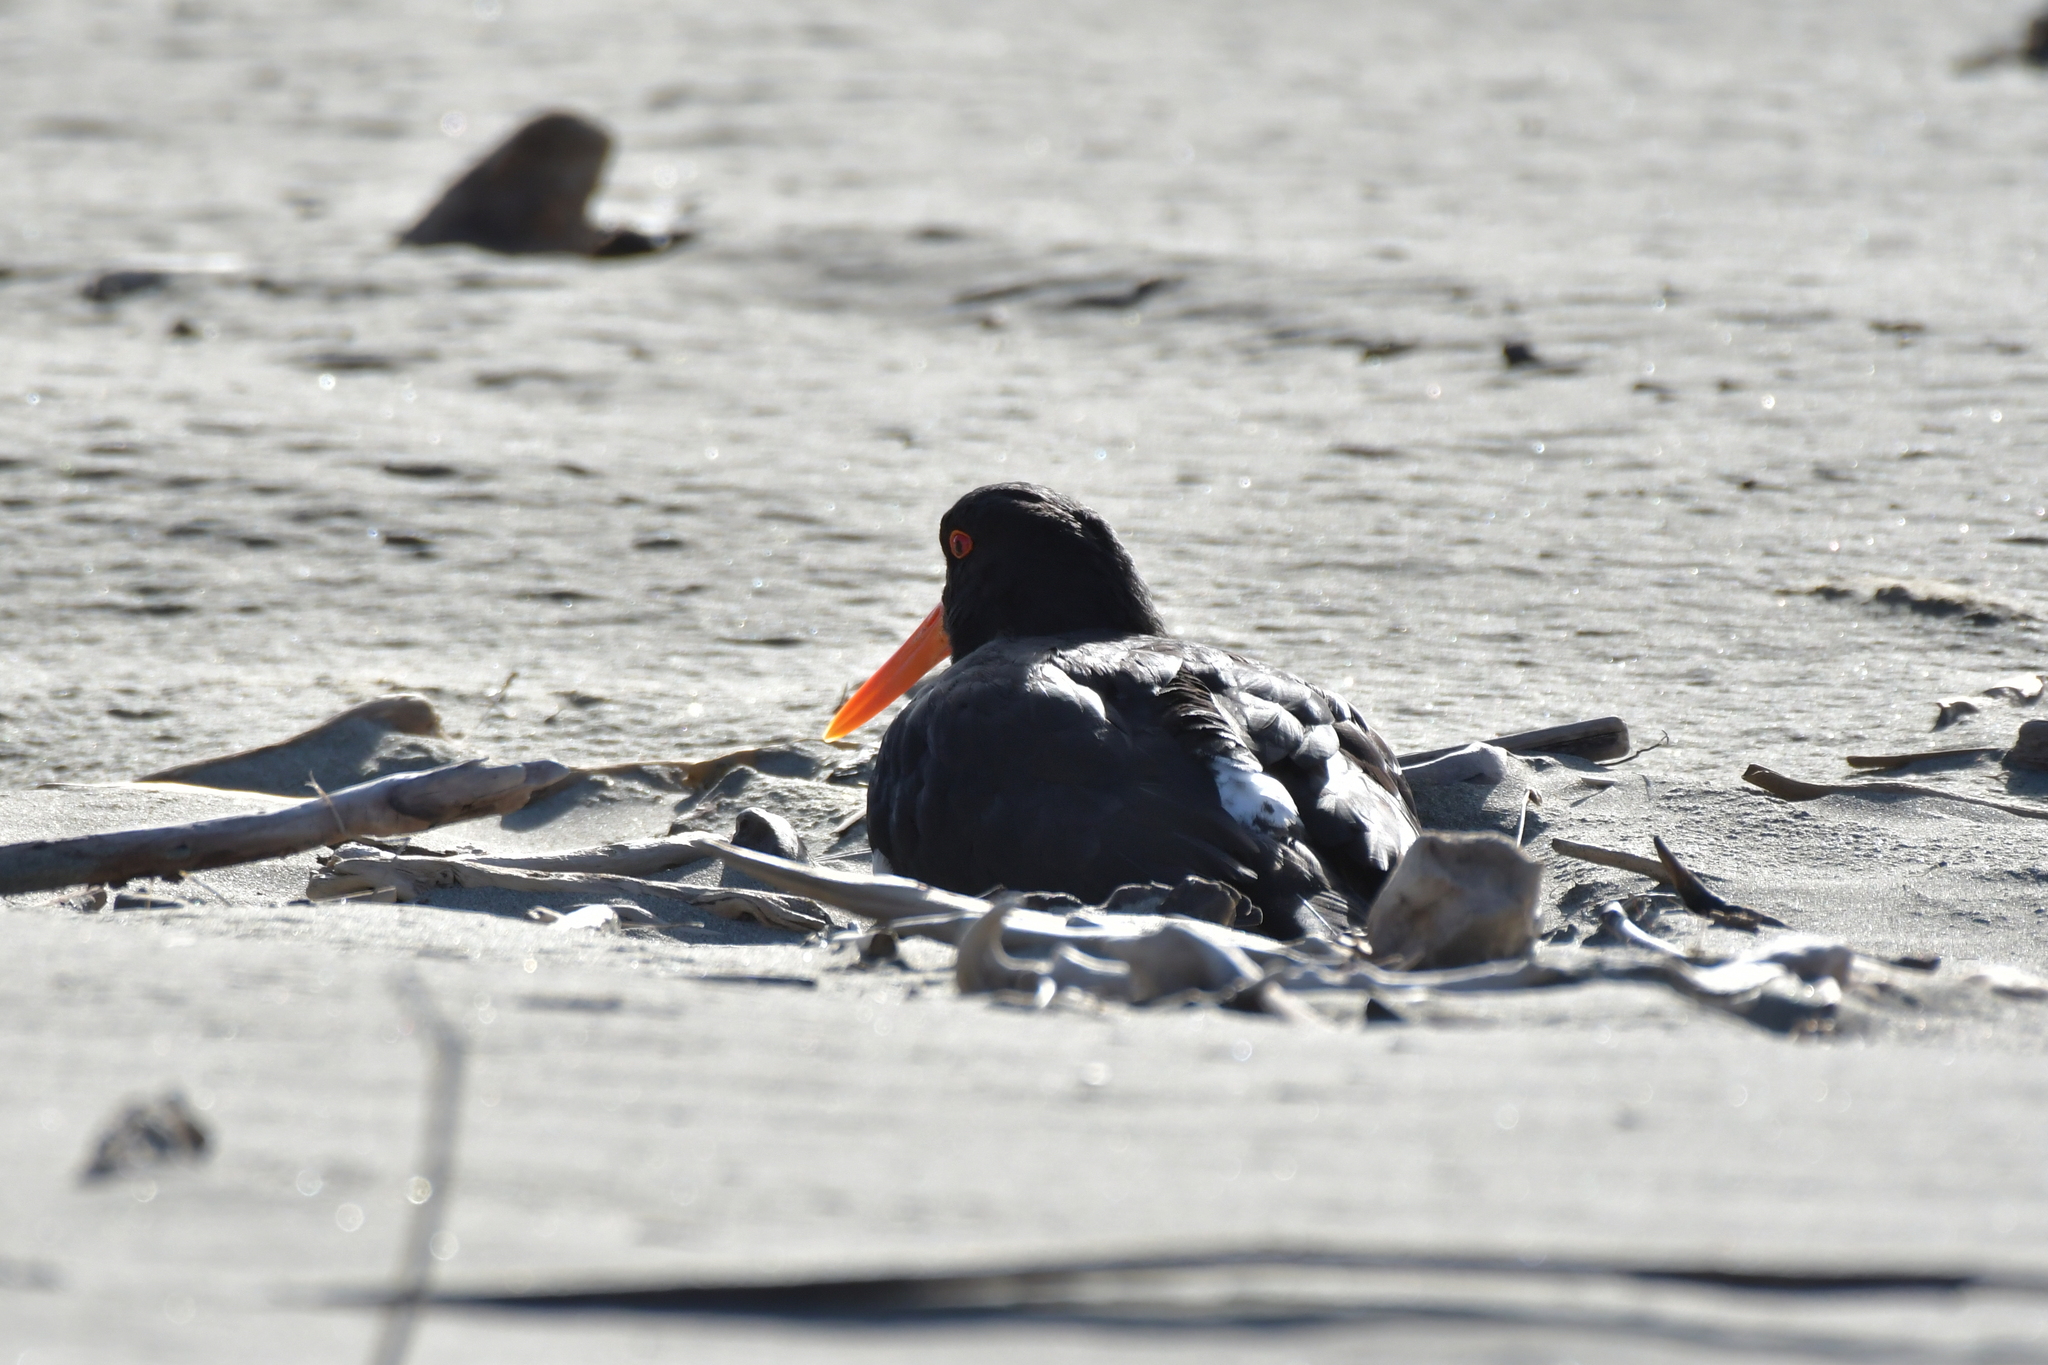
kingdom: Animalia
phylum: Chordata
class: Aves
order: Charadriiformes
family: Haematopodidae
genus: Haematopus
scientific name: Haematopus unicolor
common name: Variable oystercatcher
